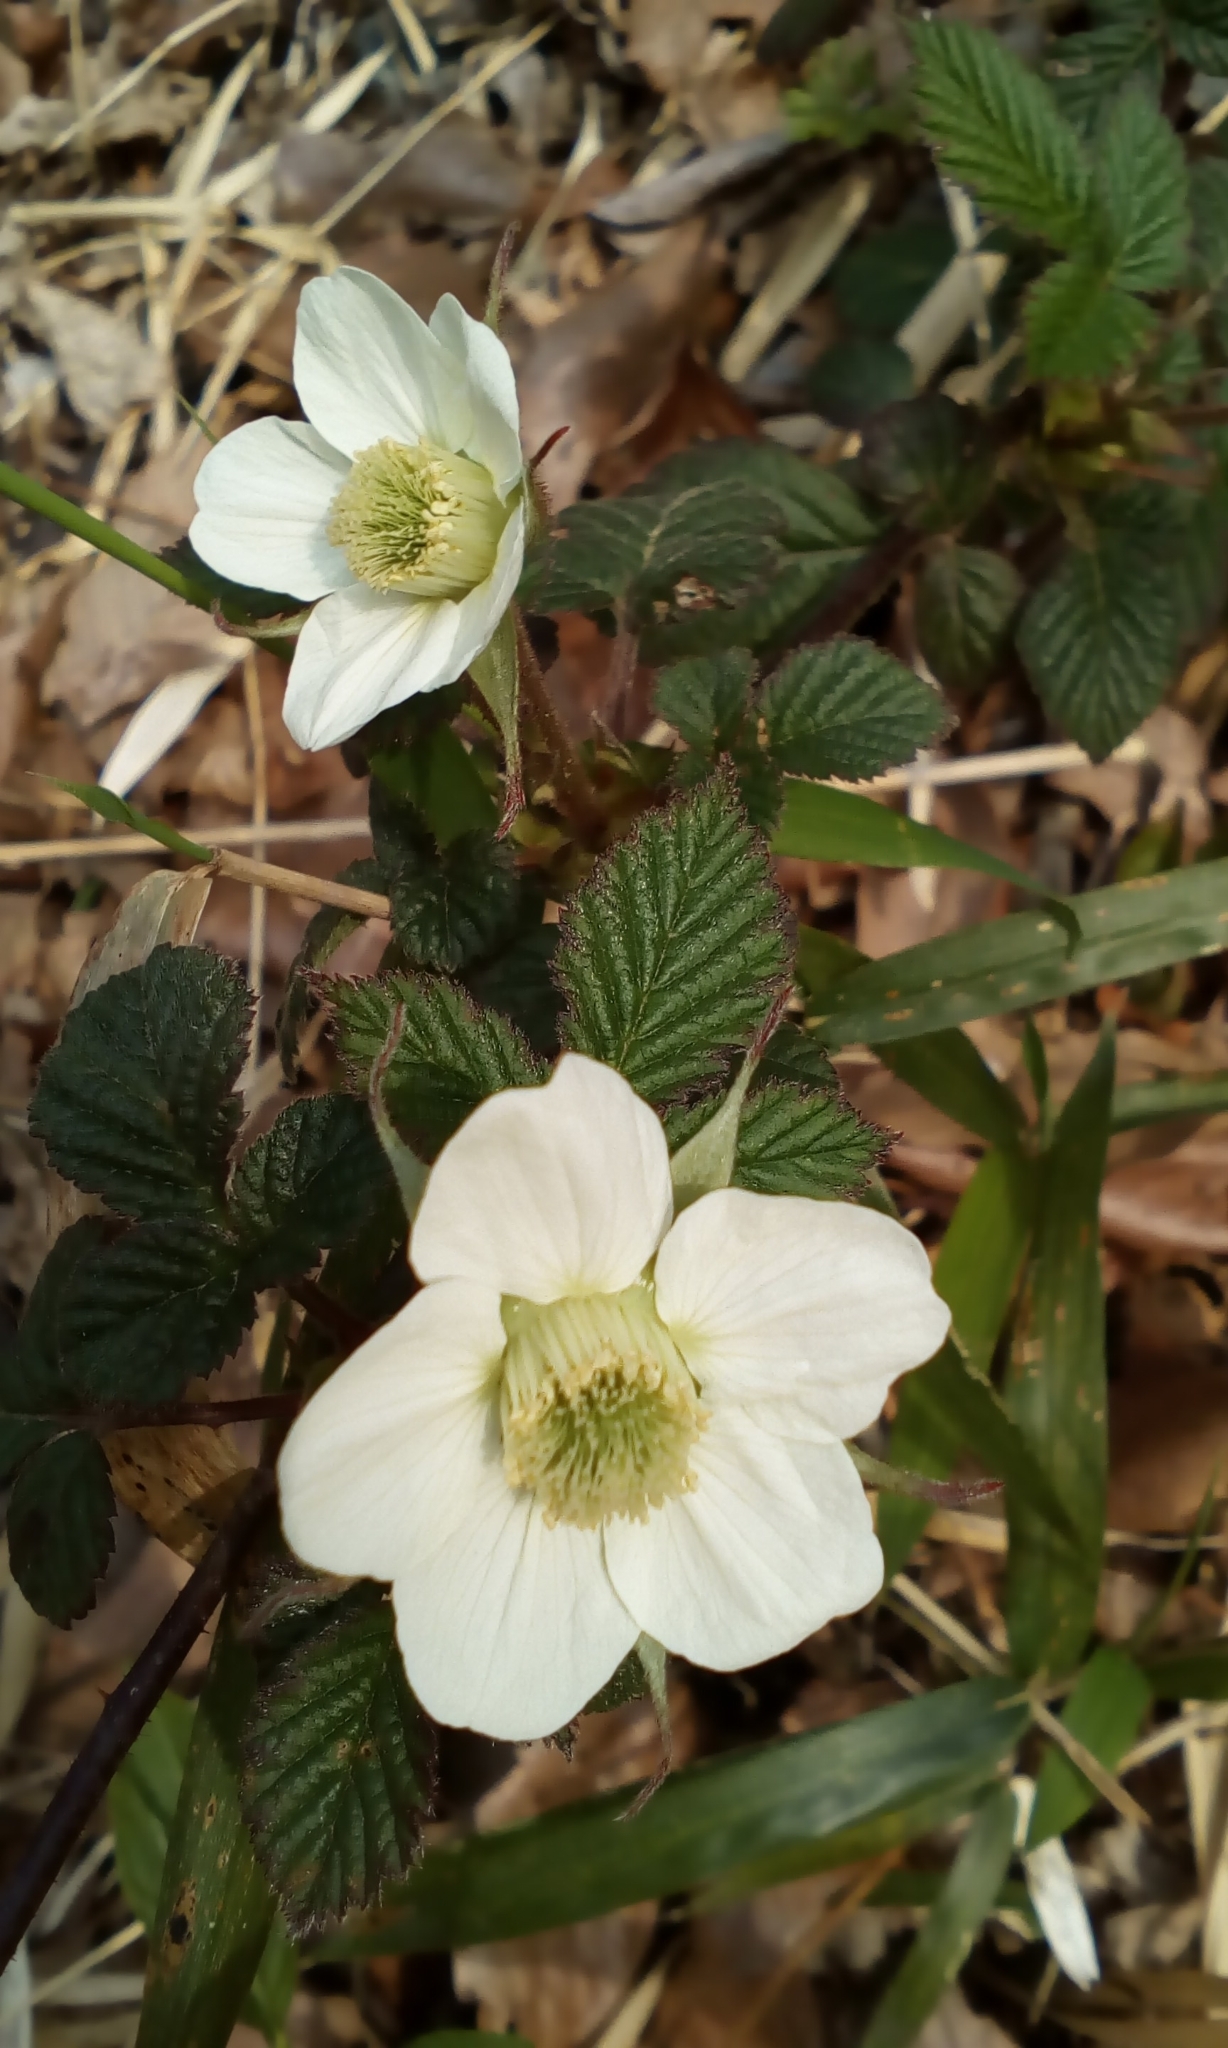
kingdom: Plantae
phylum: Tracheophyta
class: Magnoliopsida
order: Rosales
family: Rosaceae
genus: Rubus
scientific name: Rubus hirsutus
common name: Hirsute raspberry
